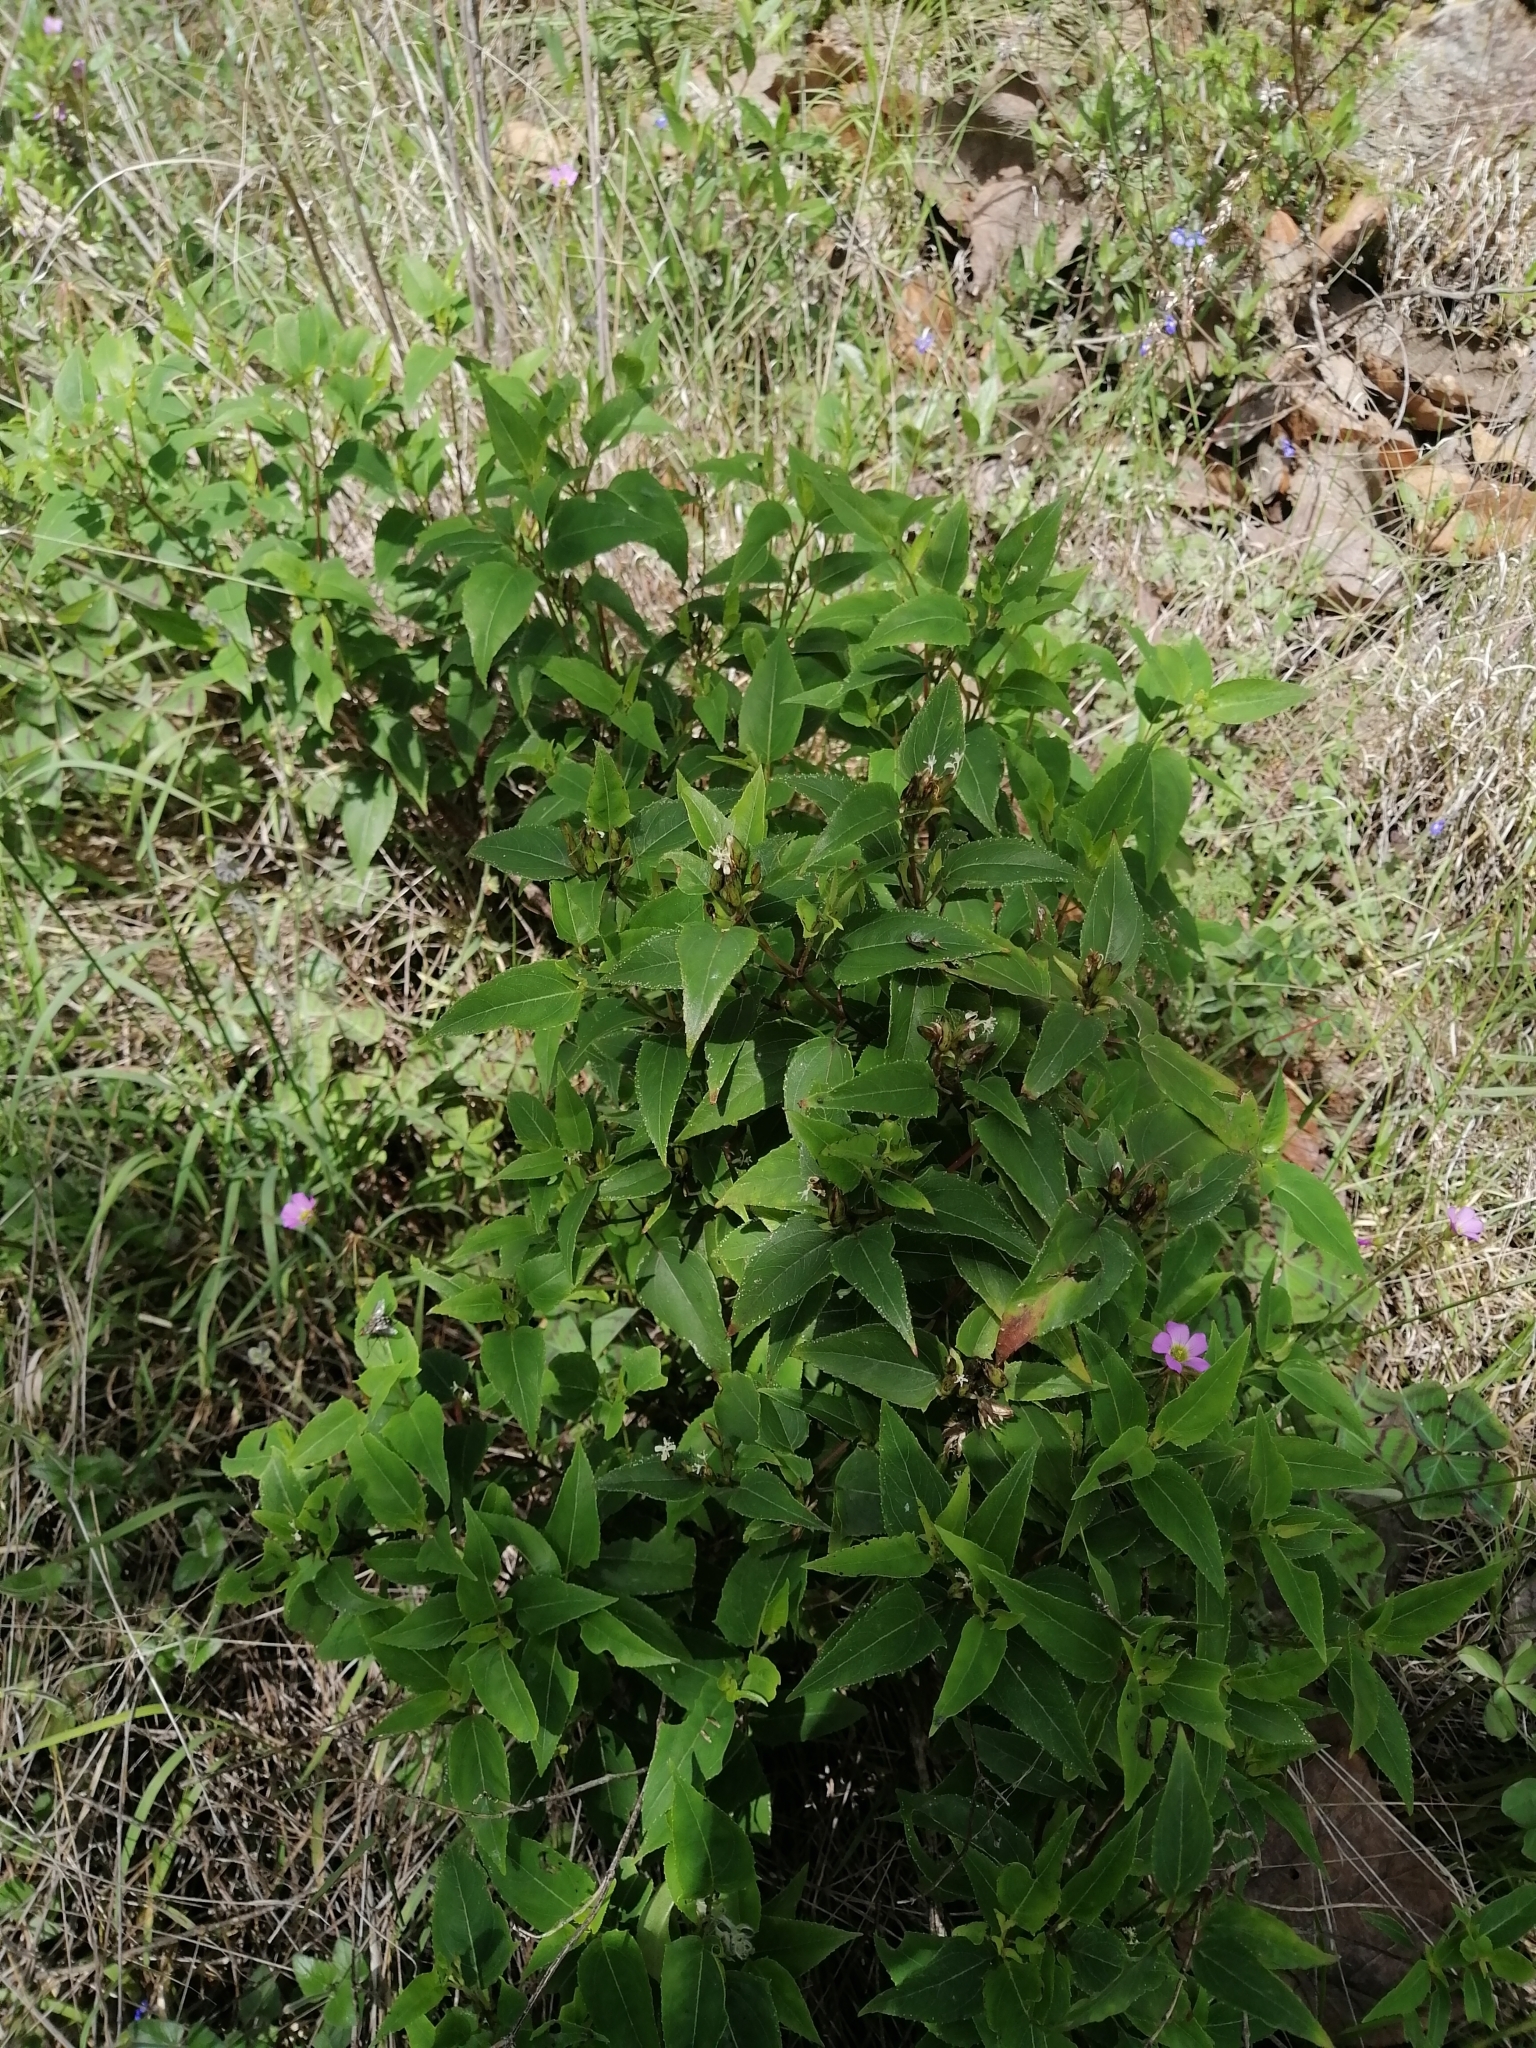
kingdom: Plantae
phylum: Tracheophyta
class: Magnoliopsida
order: Asterales
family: Asteraceae
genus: Guardiola
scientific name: Guardiola mexicana
